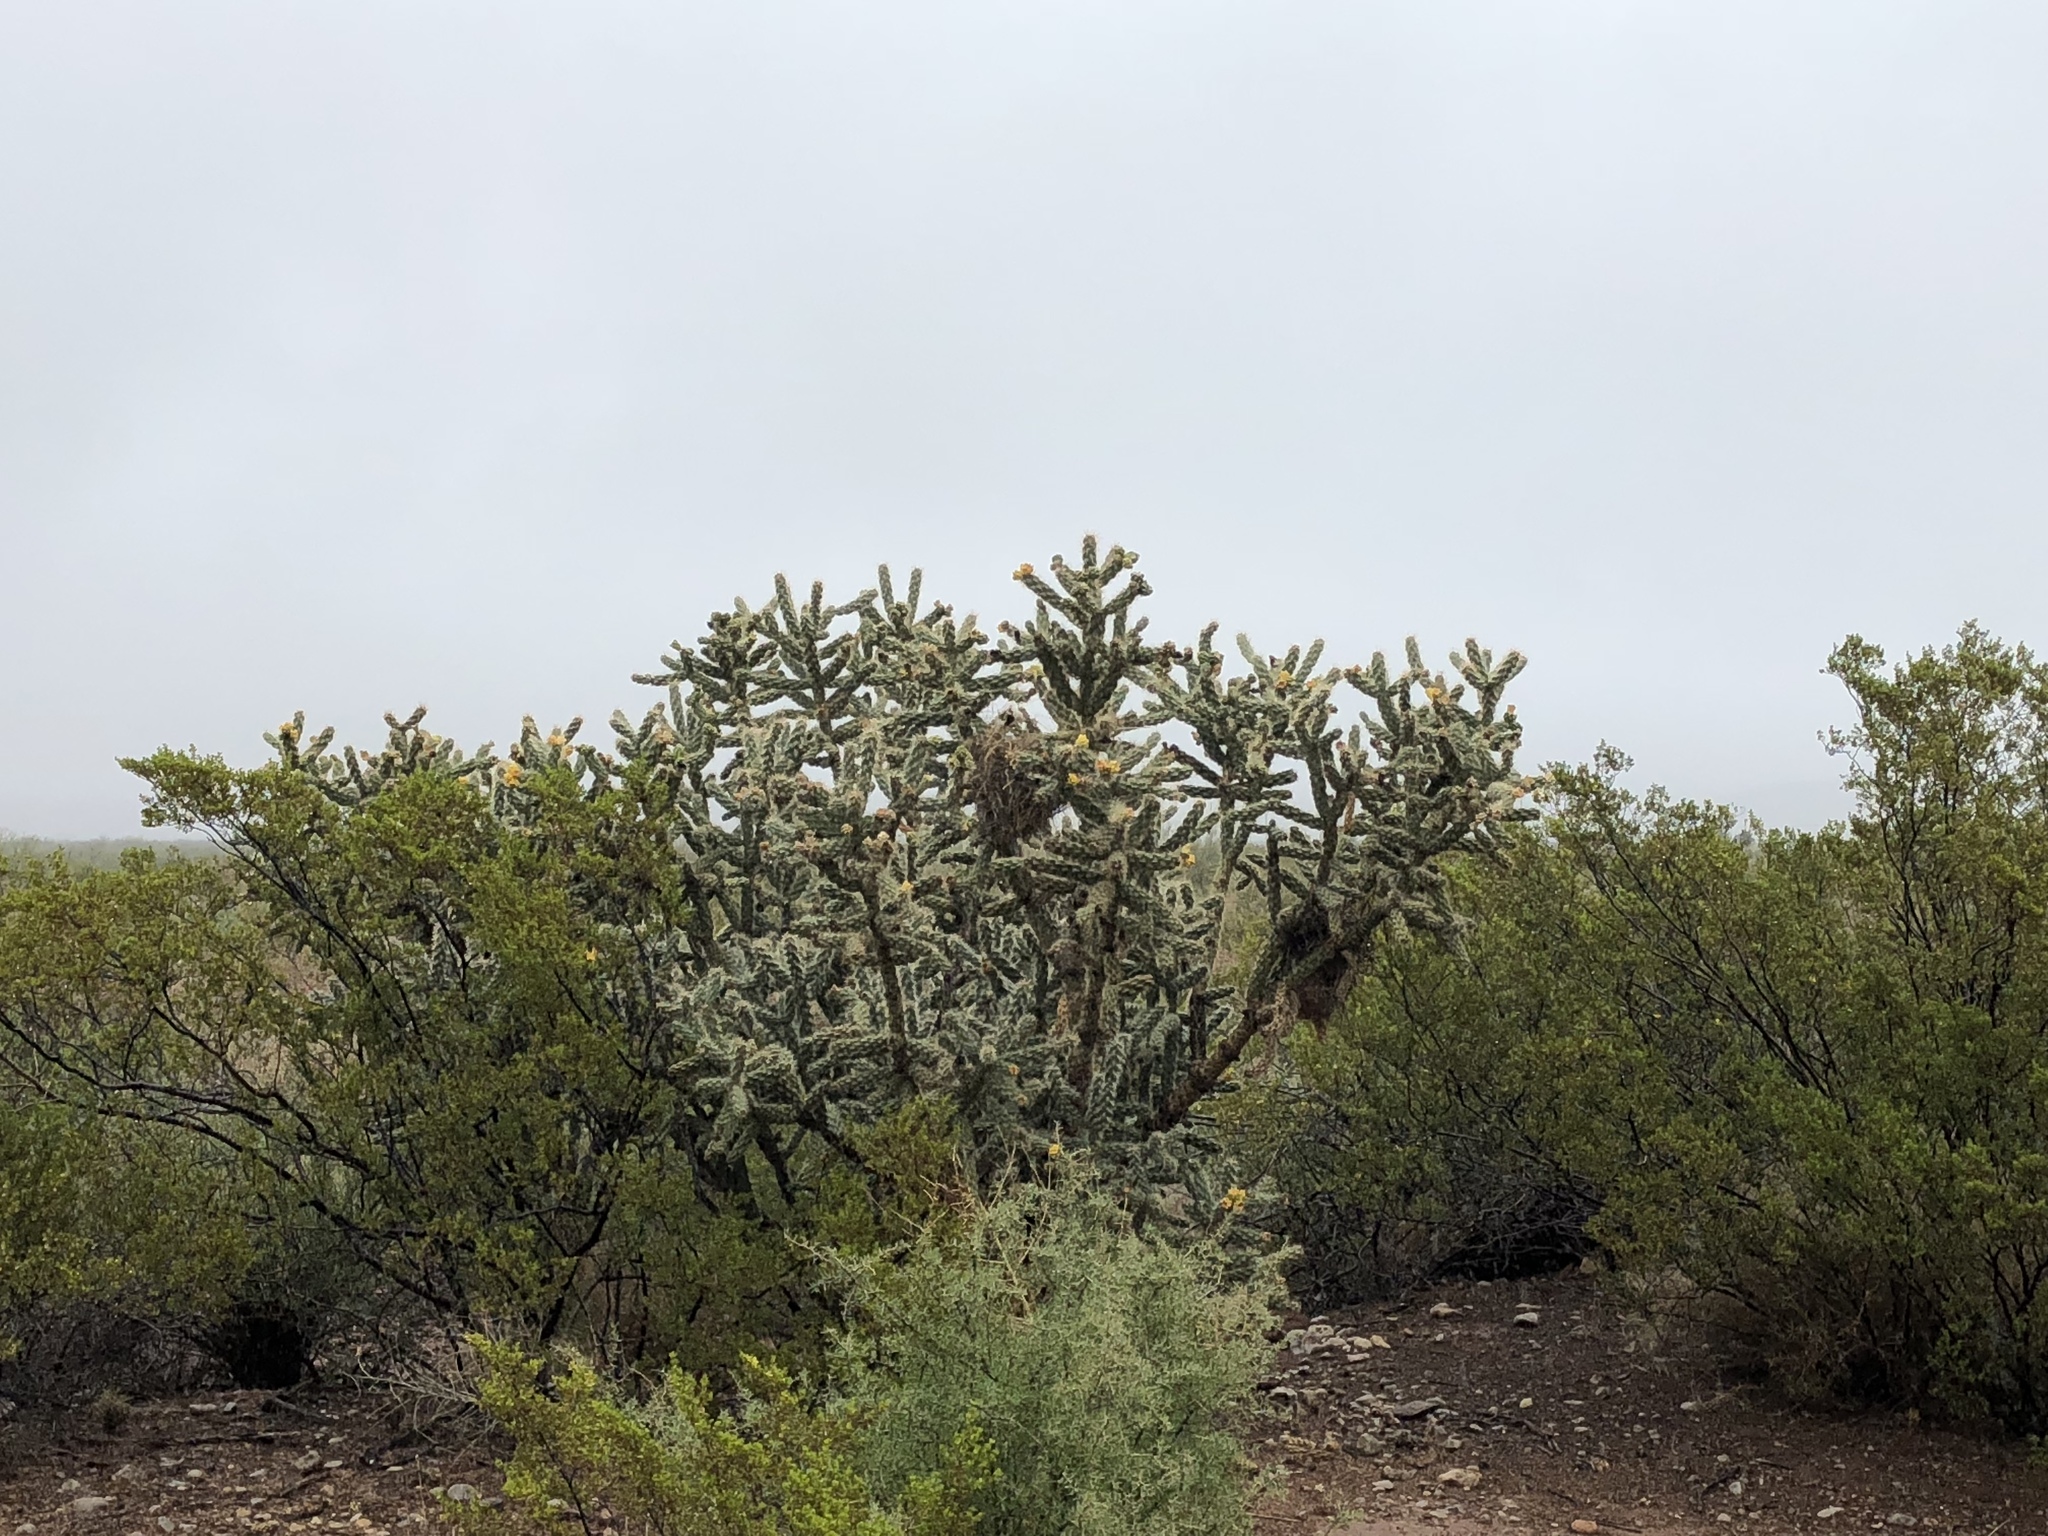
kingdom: Plantae
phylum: Tracheophyta
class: Magnoliopsida
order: Caryophyllales
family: Cactaceae
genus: Cylindropuntia
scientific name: Cylindropuntia imbricata
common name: Candelabrum cactus
